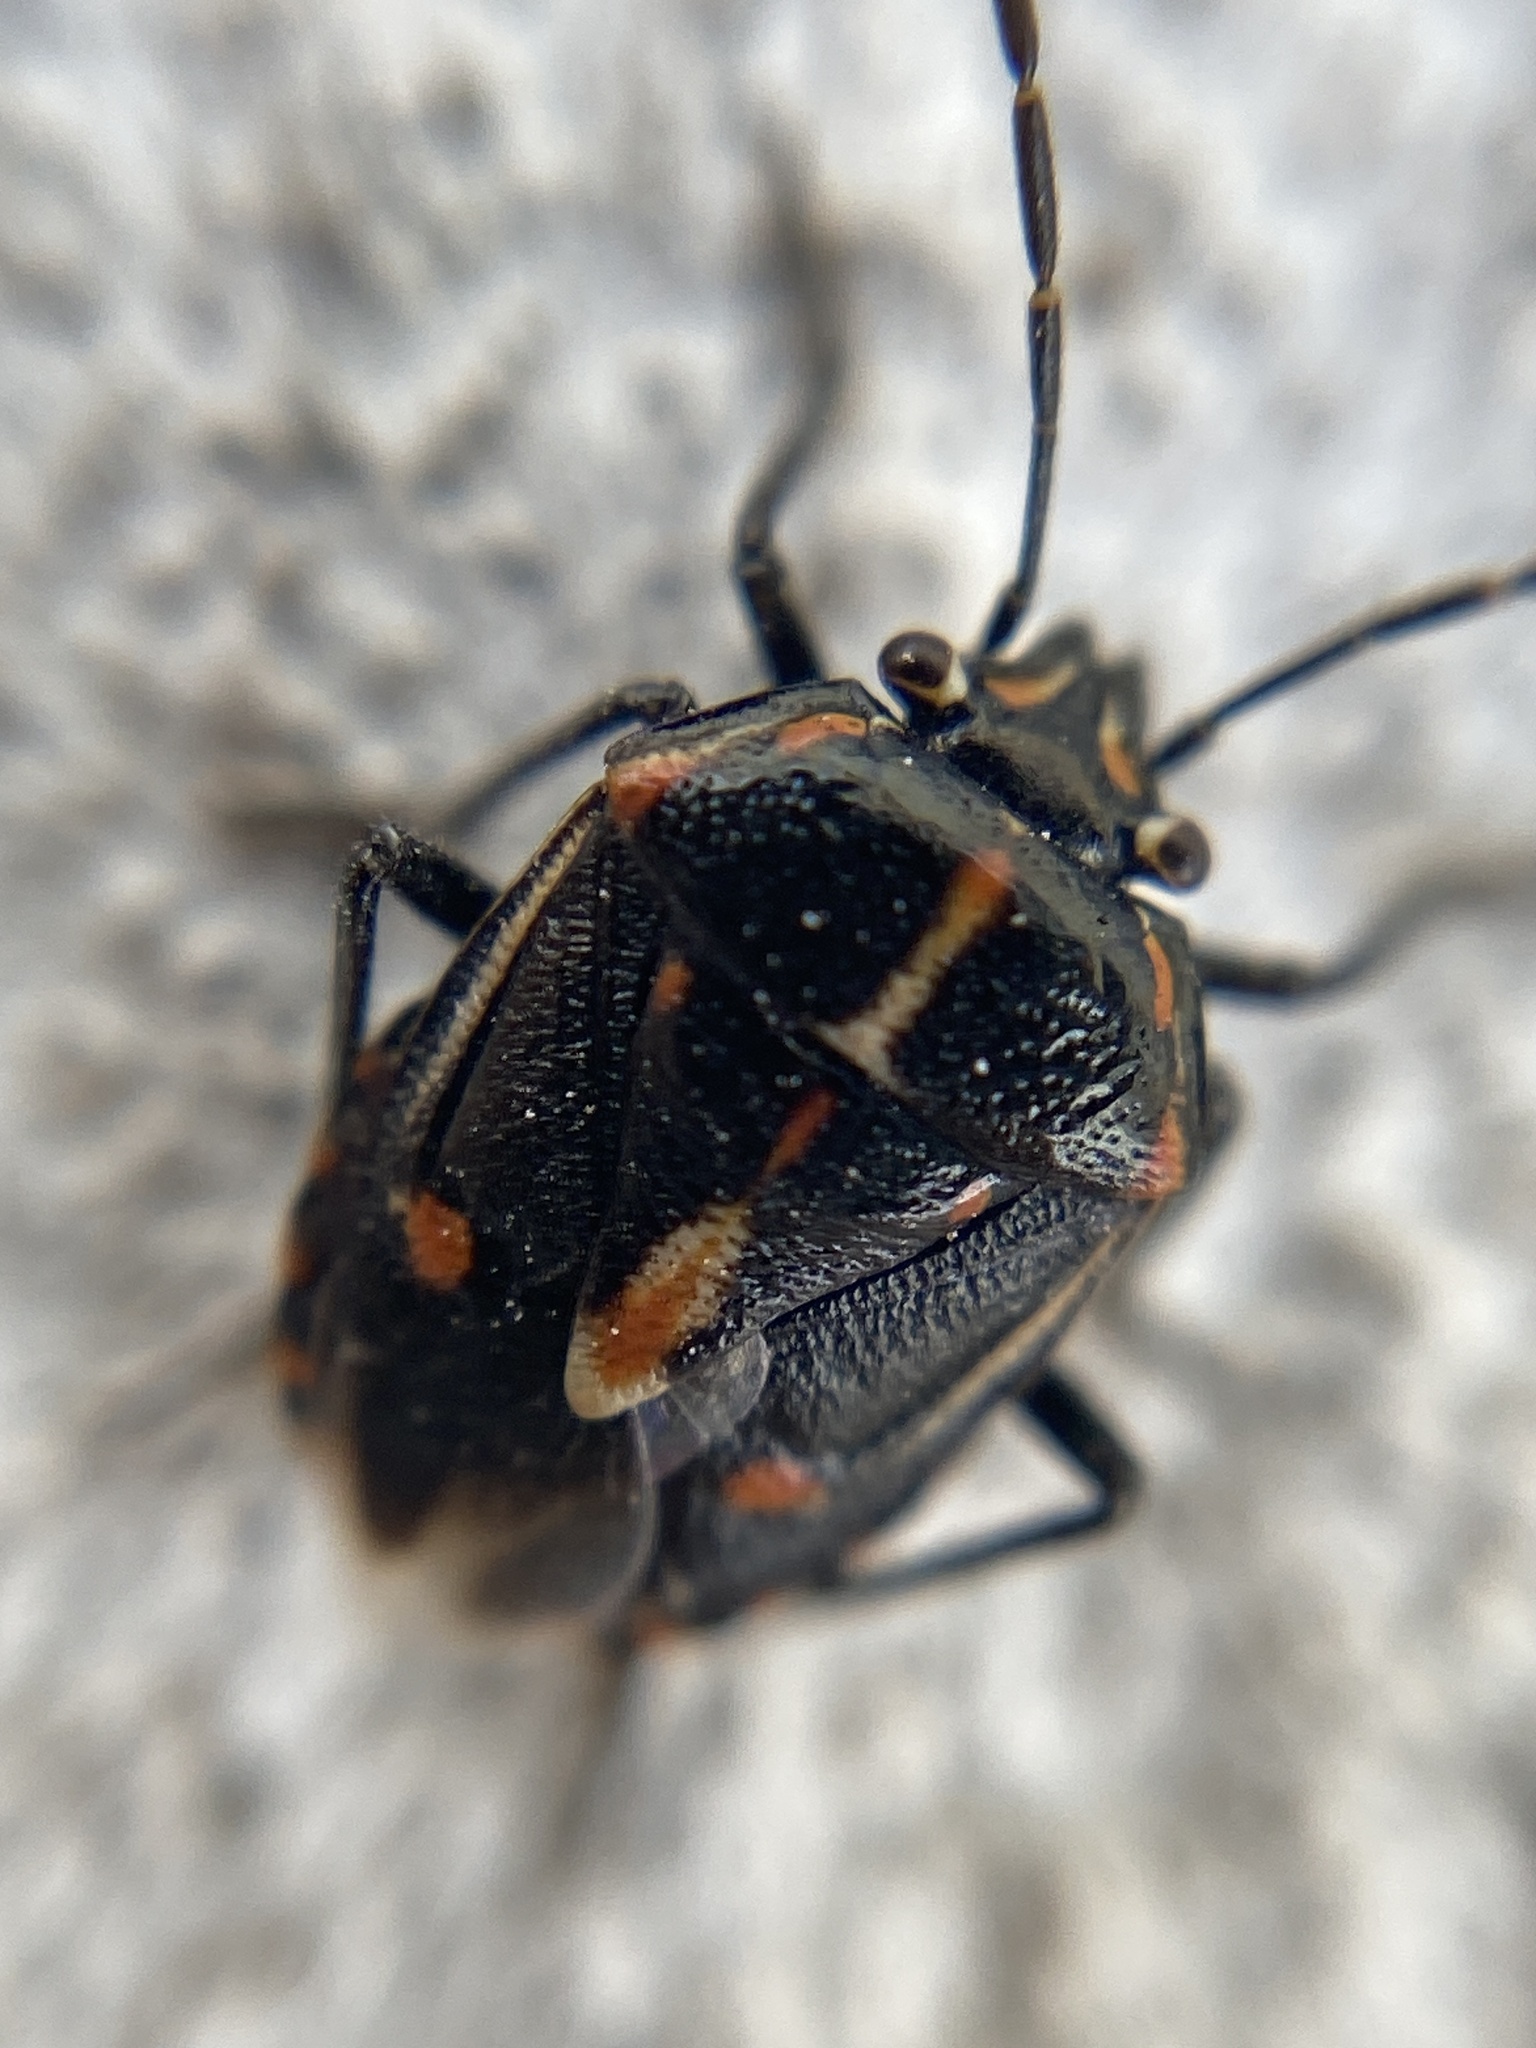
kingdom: Animalia
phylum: Arthropoda
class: Insecta
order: Hemiptera
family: Pentatomidae
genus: Bagrada
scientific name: Bagrada hilaris
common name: Bagrada bug
